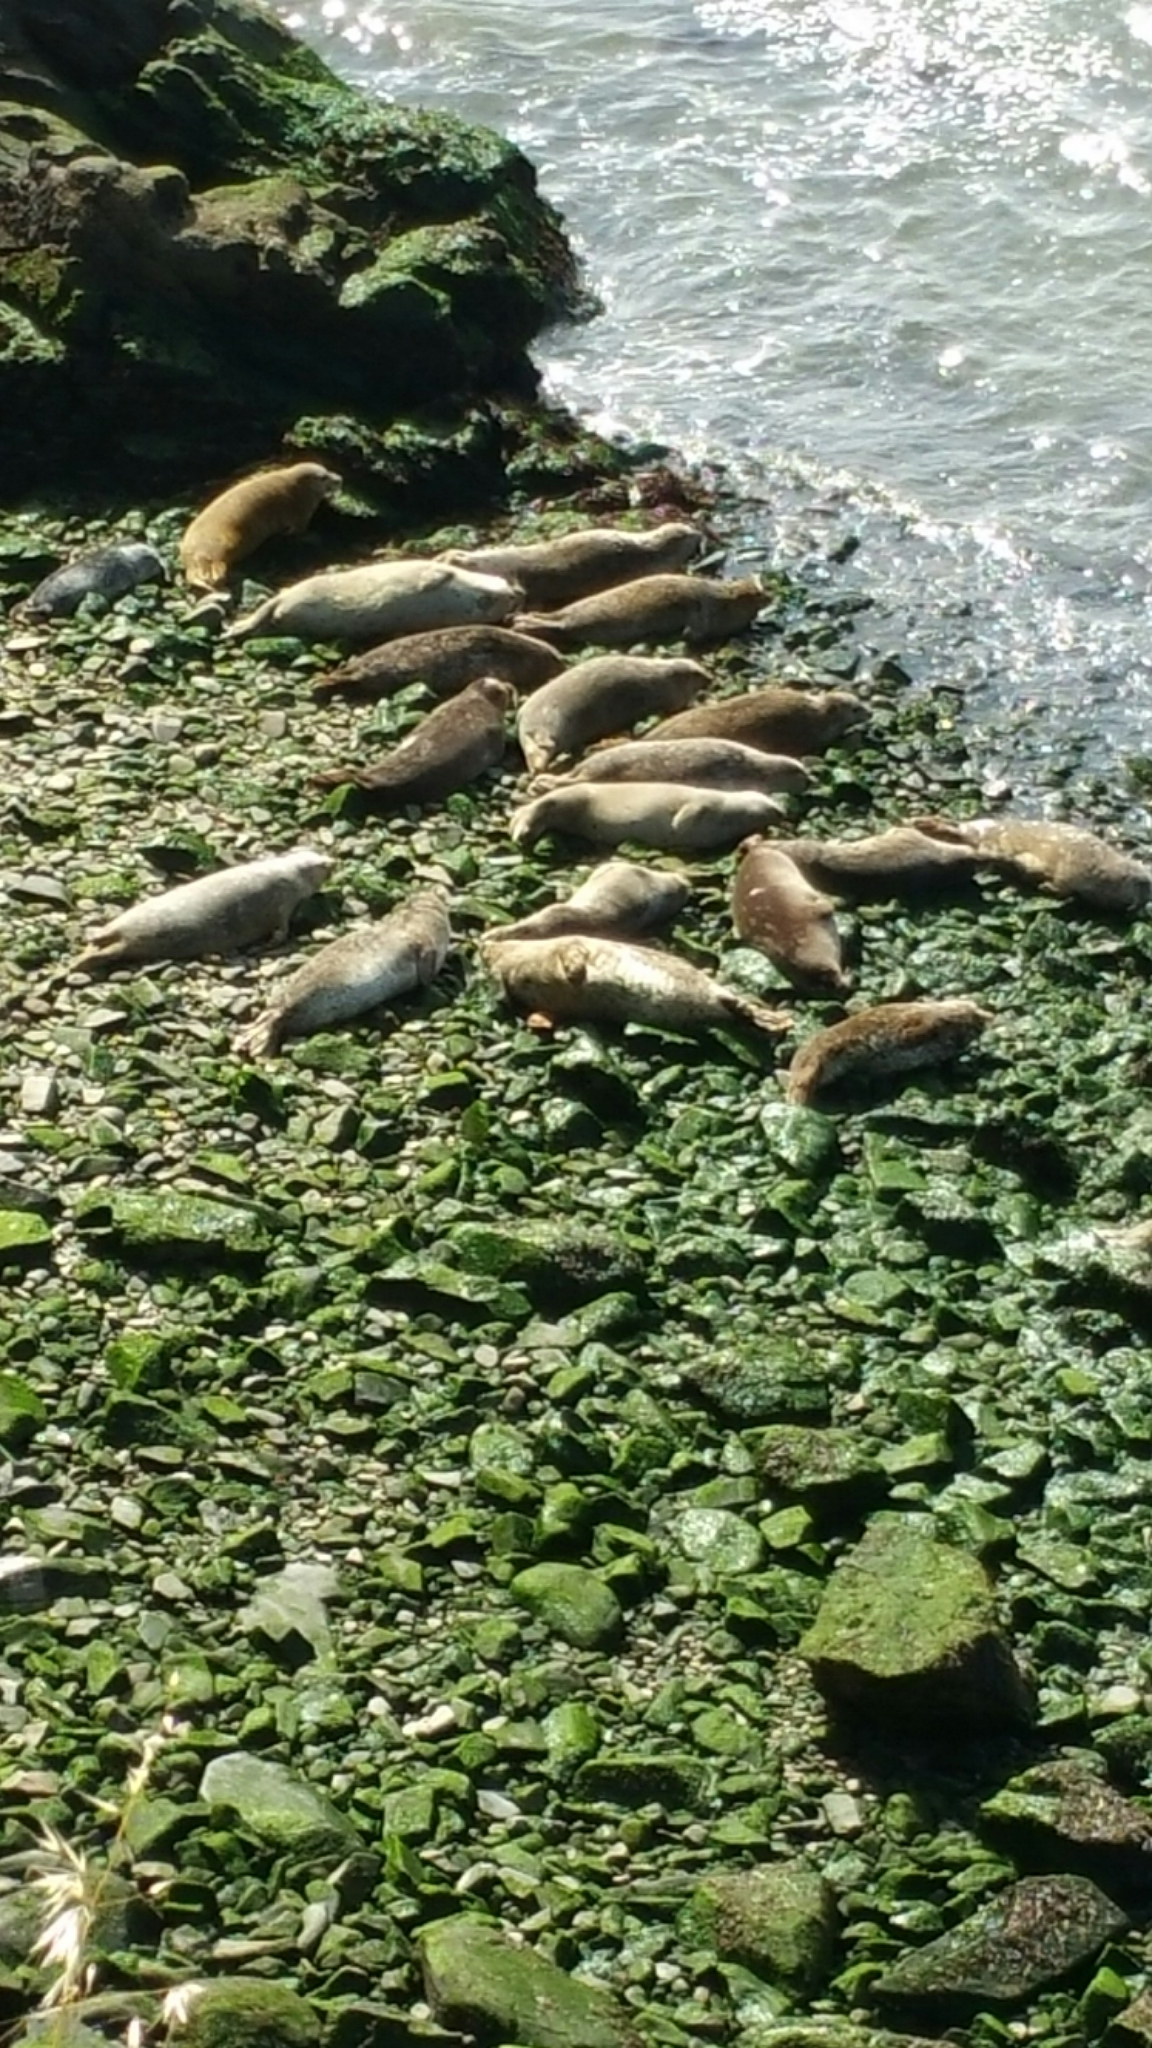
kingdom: Animalia
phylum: Chordata
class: Mammalia
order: Carnivora
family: Phocidae
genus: Phoca
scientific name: Phoca vitulina
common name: Harbor seal
